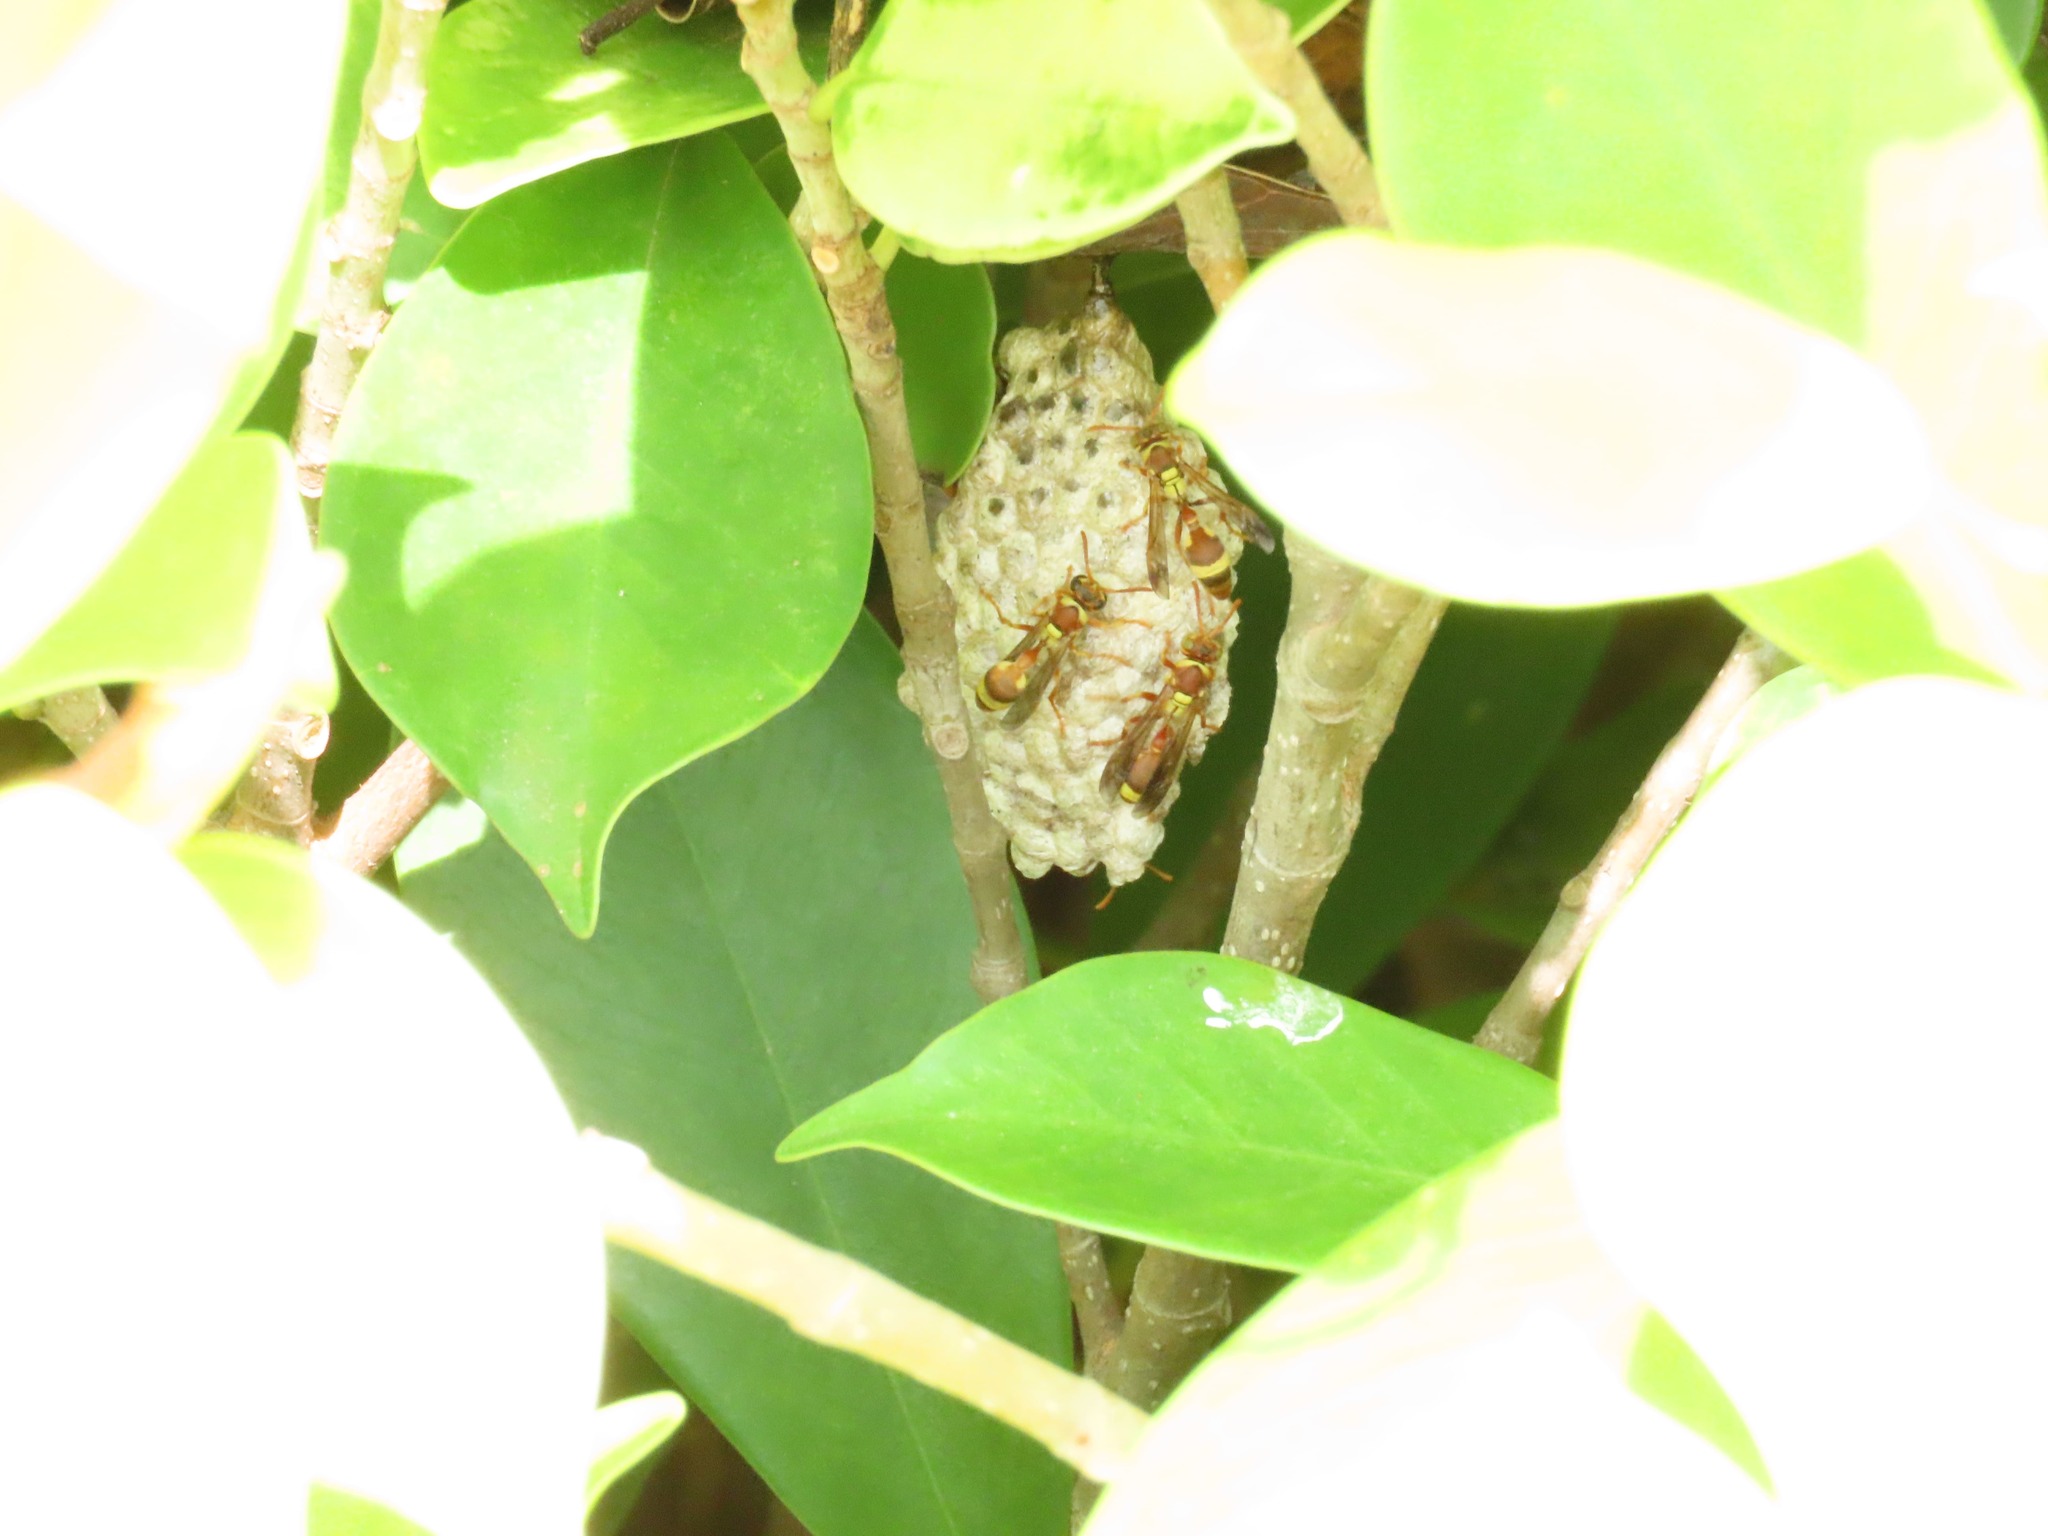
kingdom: Animalia
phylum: Arthropoda
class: Insecta
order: Hymenoptera
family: Vespidae
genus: Ropalidia
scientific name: Ropalidia fasciata
